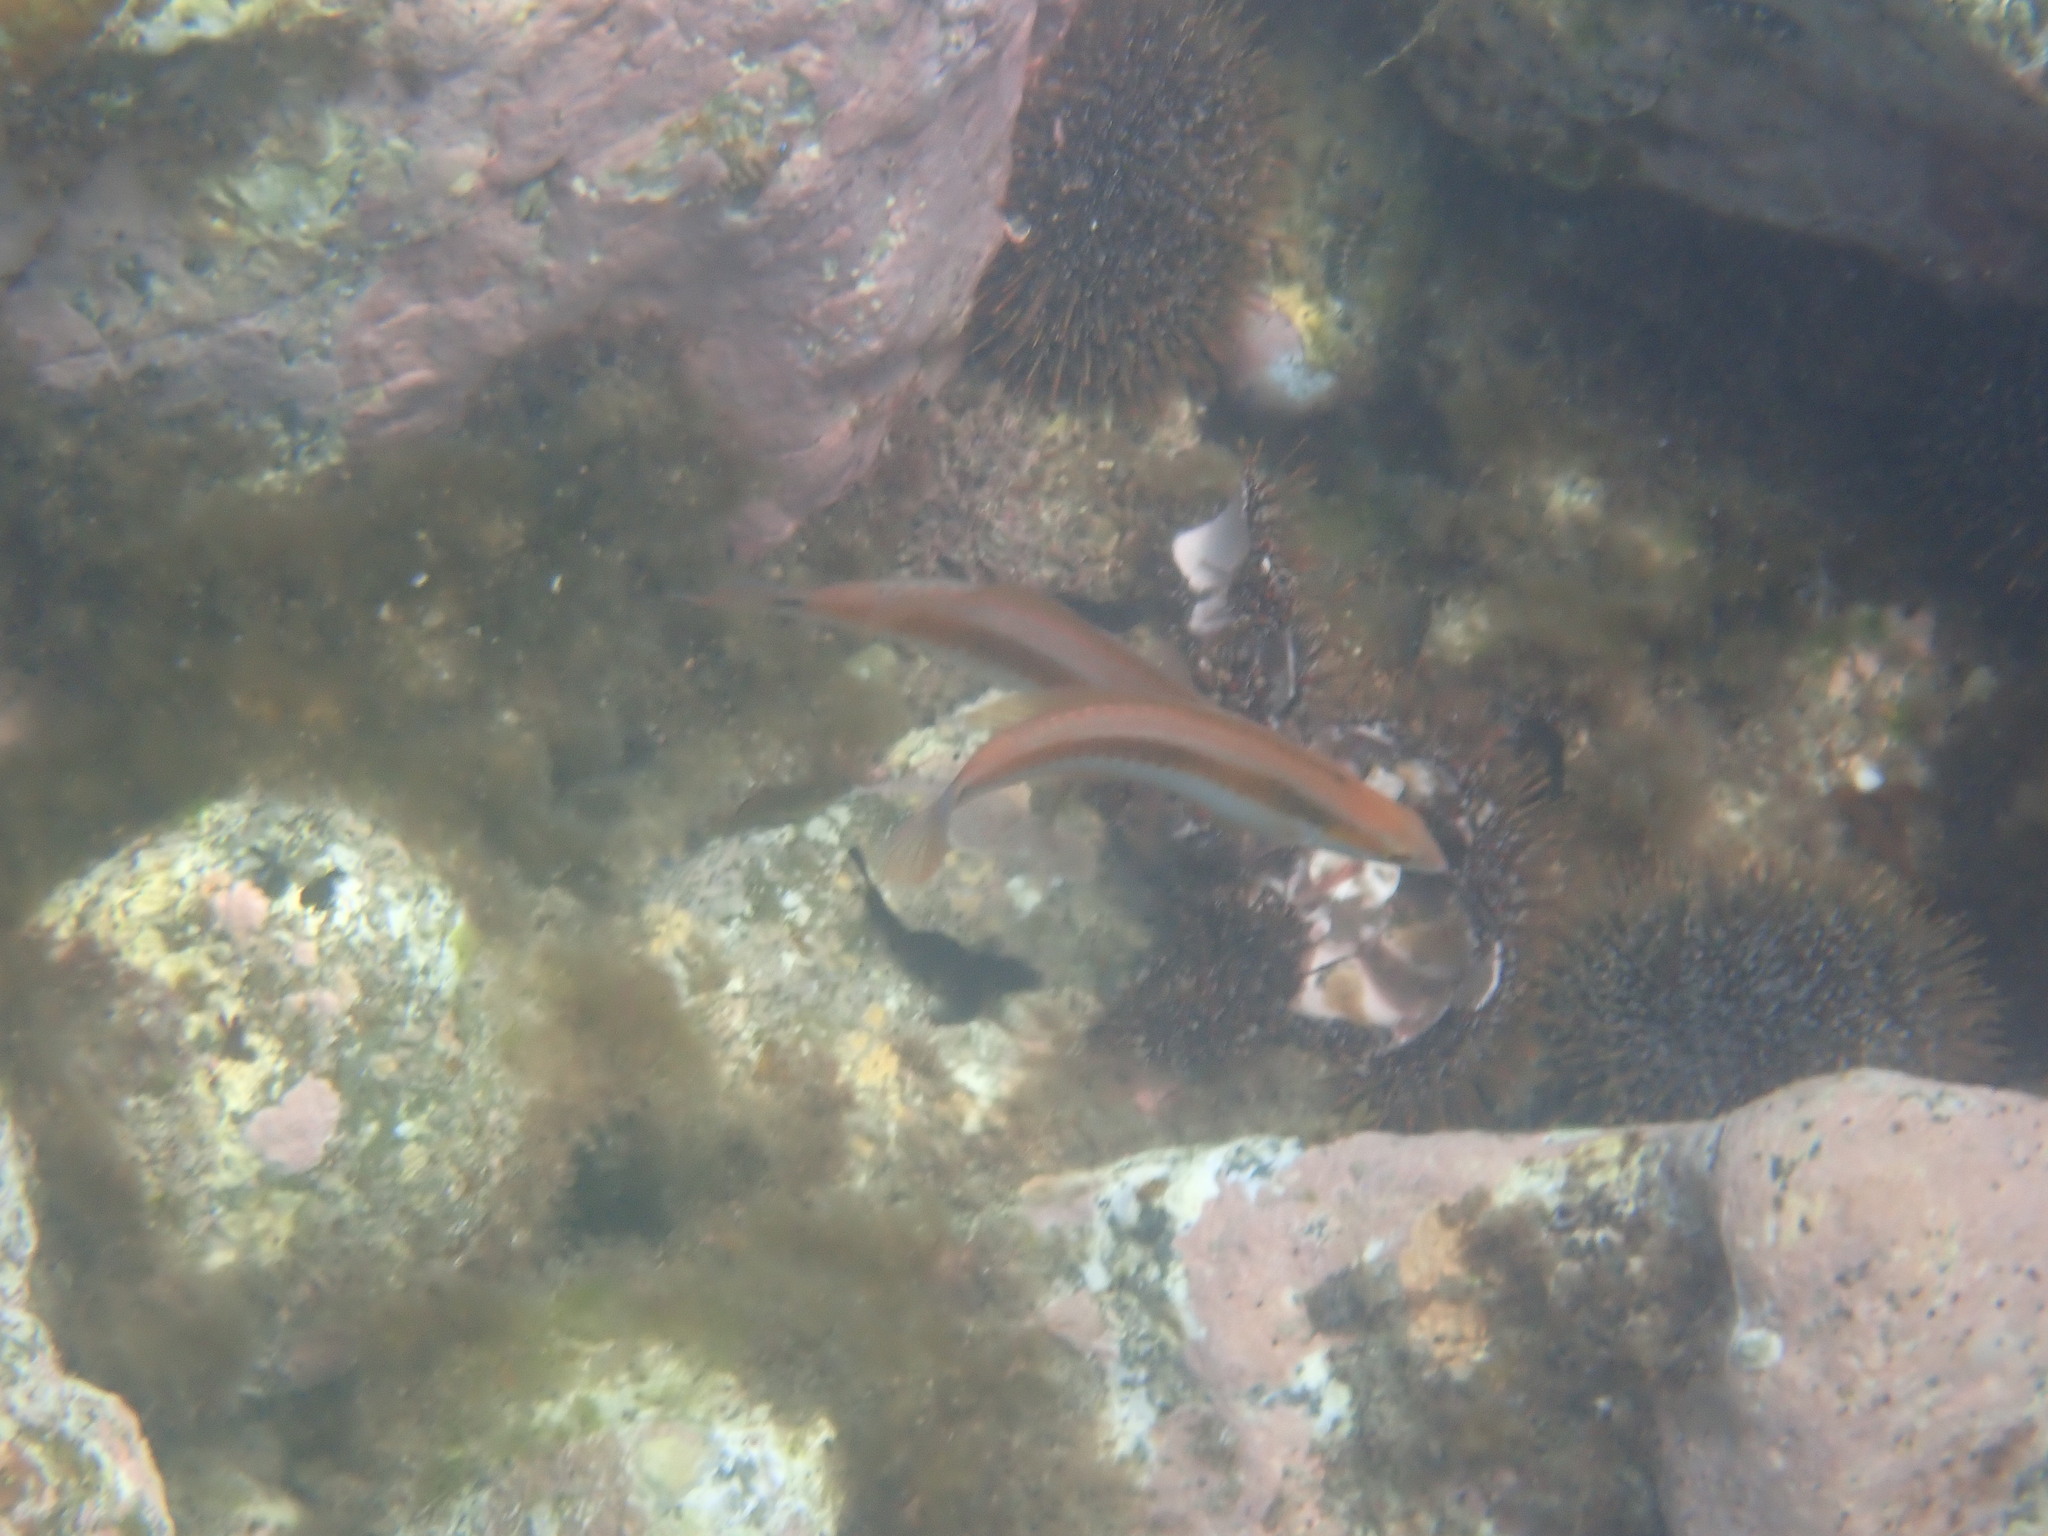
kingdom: Animalia
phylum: Chordata
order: Perciformes
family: Labridae
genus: Coris
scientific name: Coris sandeyeri
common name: Sandager's wrasse
